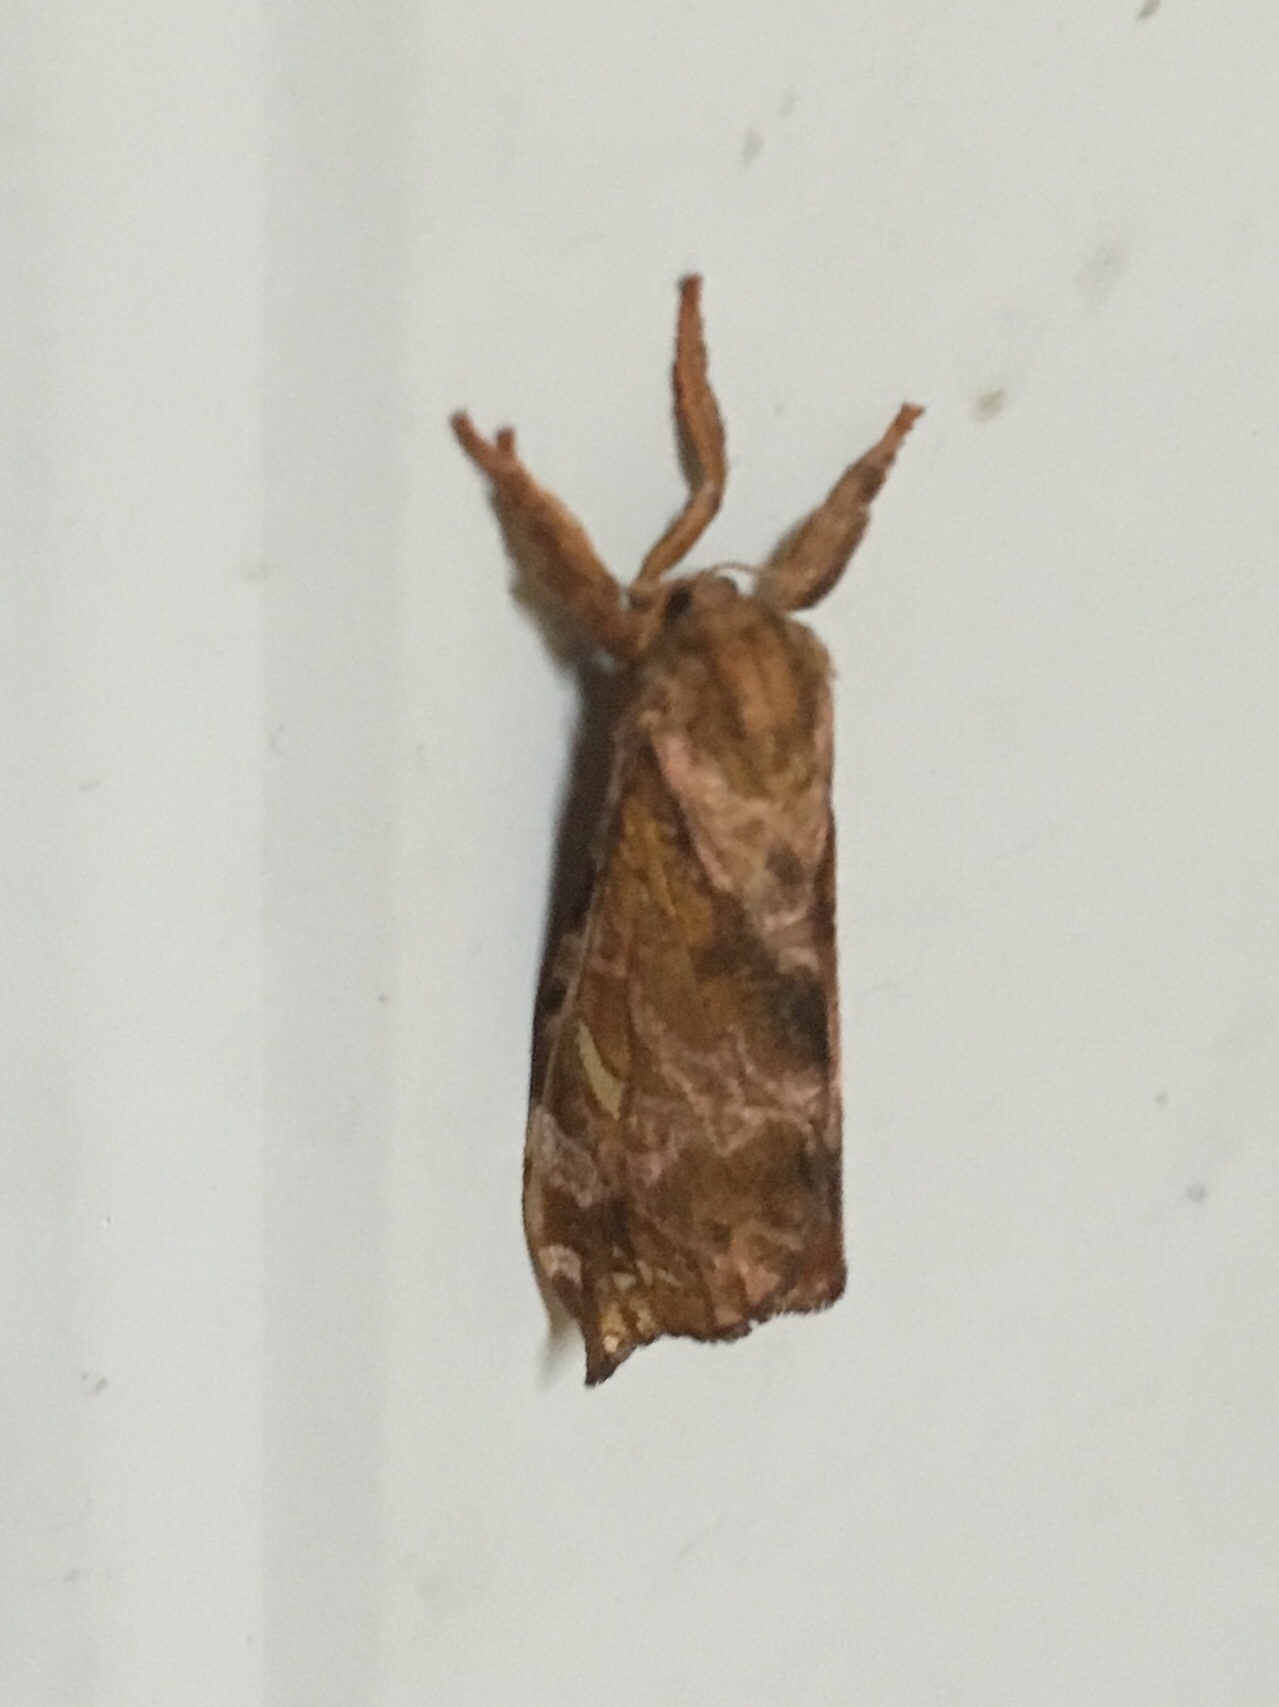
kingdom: Animalia
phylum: Arthropoda
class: Insecta
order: Lepidoptera
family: Hepialidae
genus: Sthenopis
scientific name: Sthenopis pretiosus
